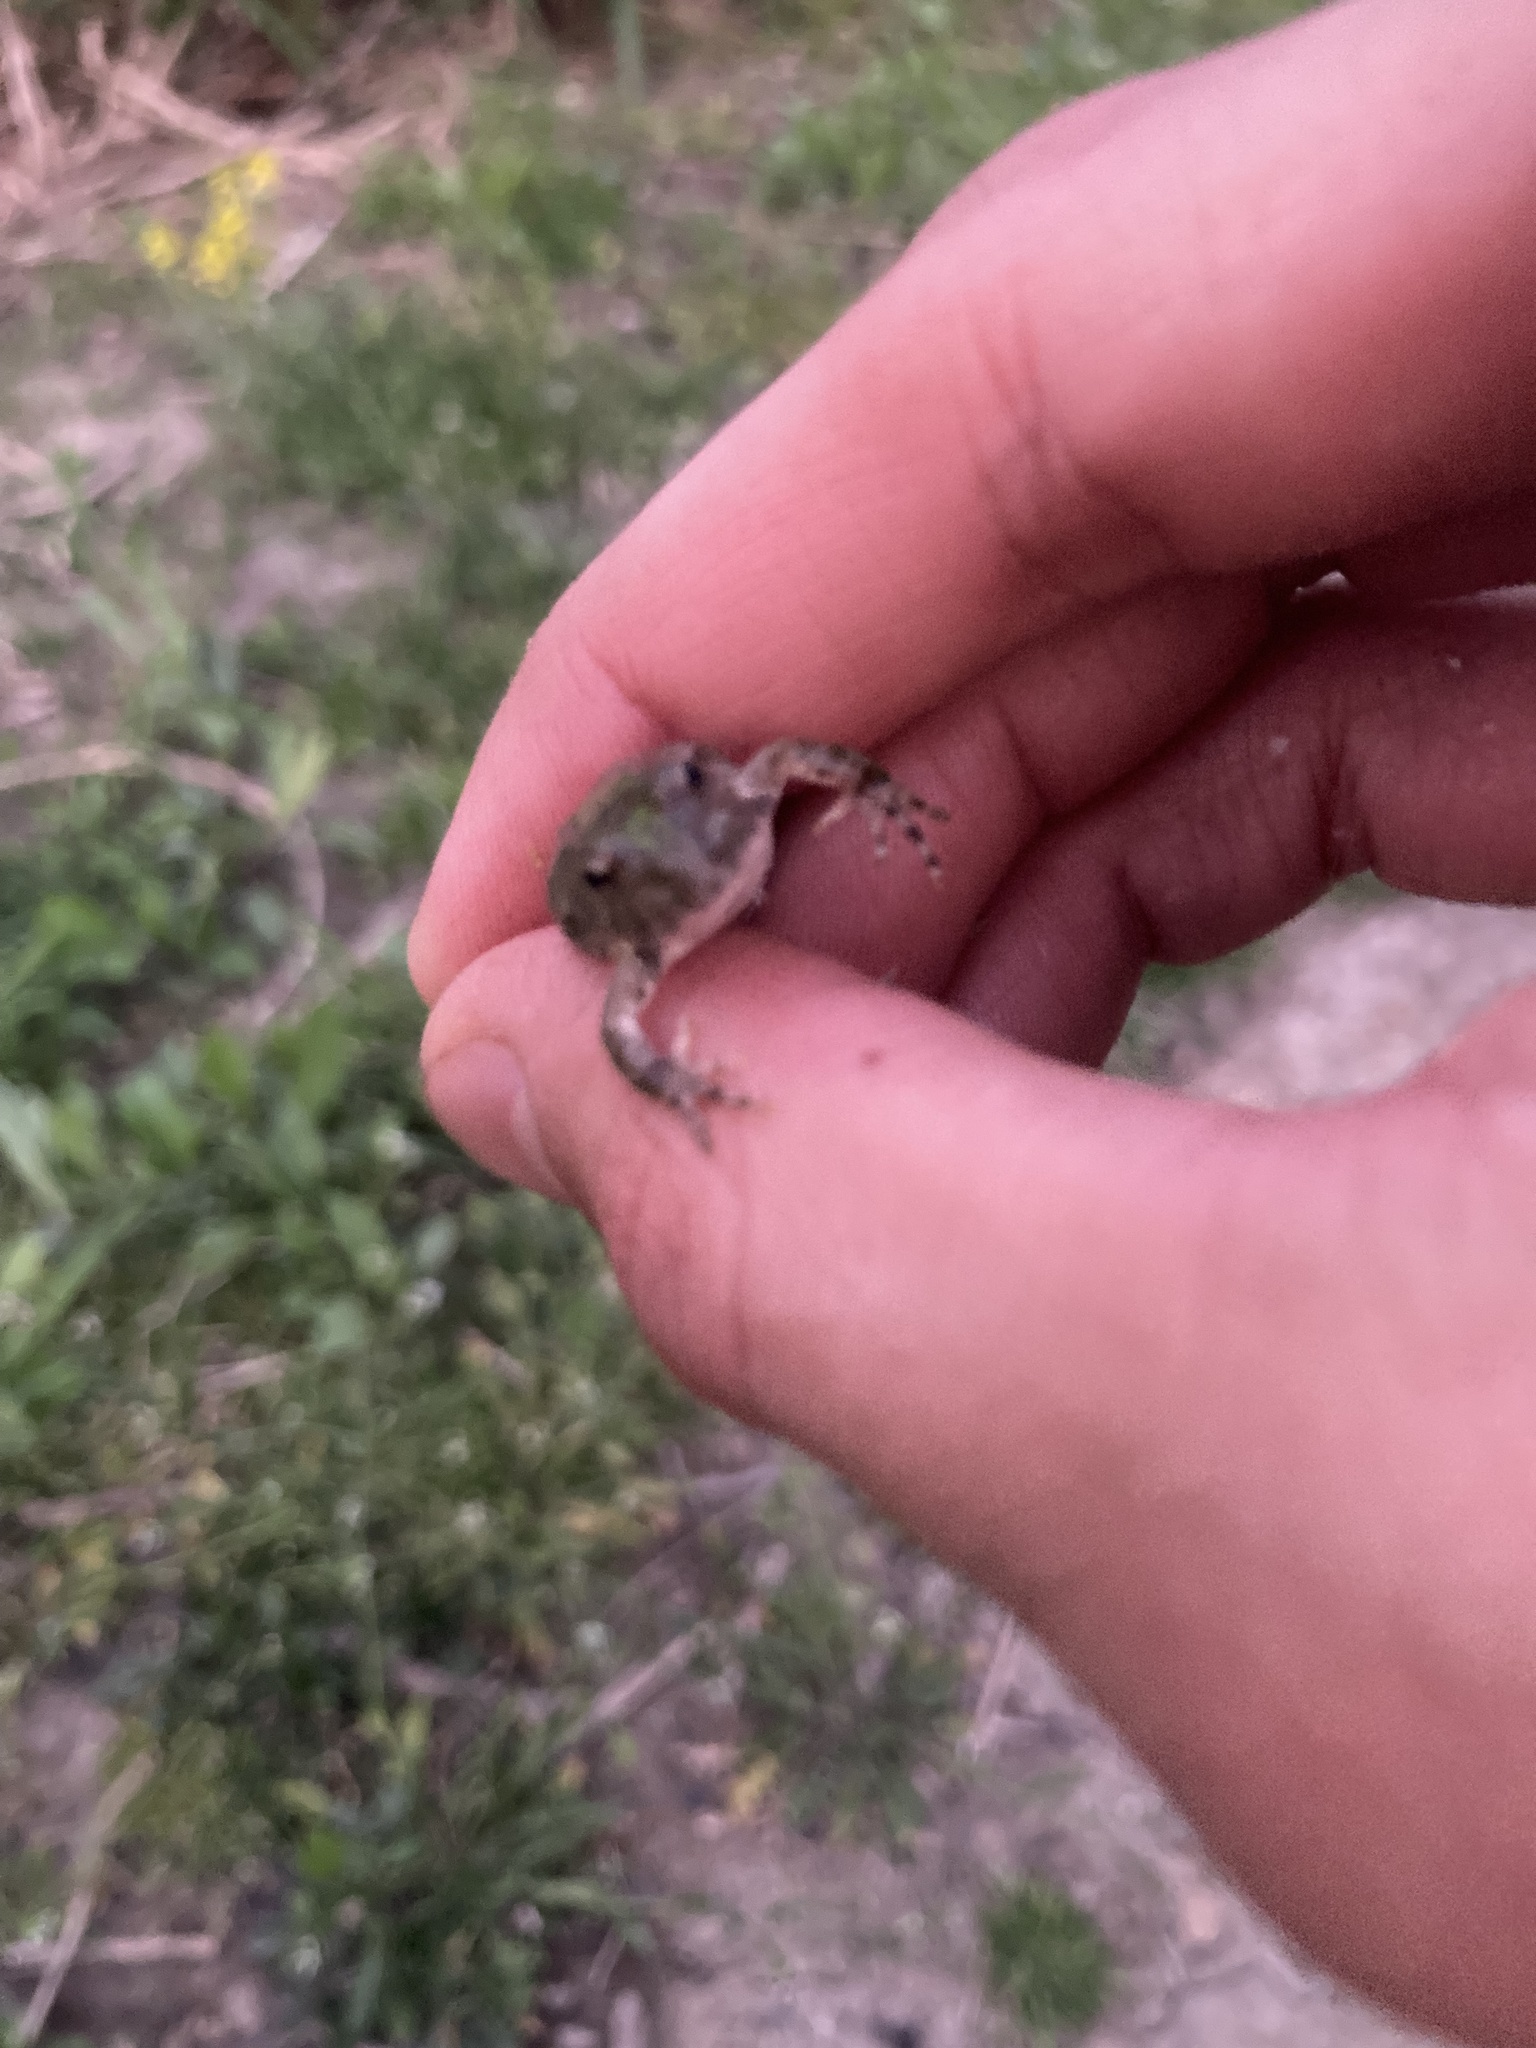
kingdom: Animalia
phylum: Chordata
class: Amphibia
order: Anura
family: Hylidae
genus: Acris
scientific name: Acris blanchardi
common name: Blanchard's cricket frog
